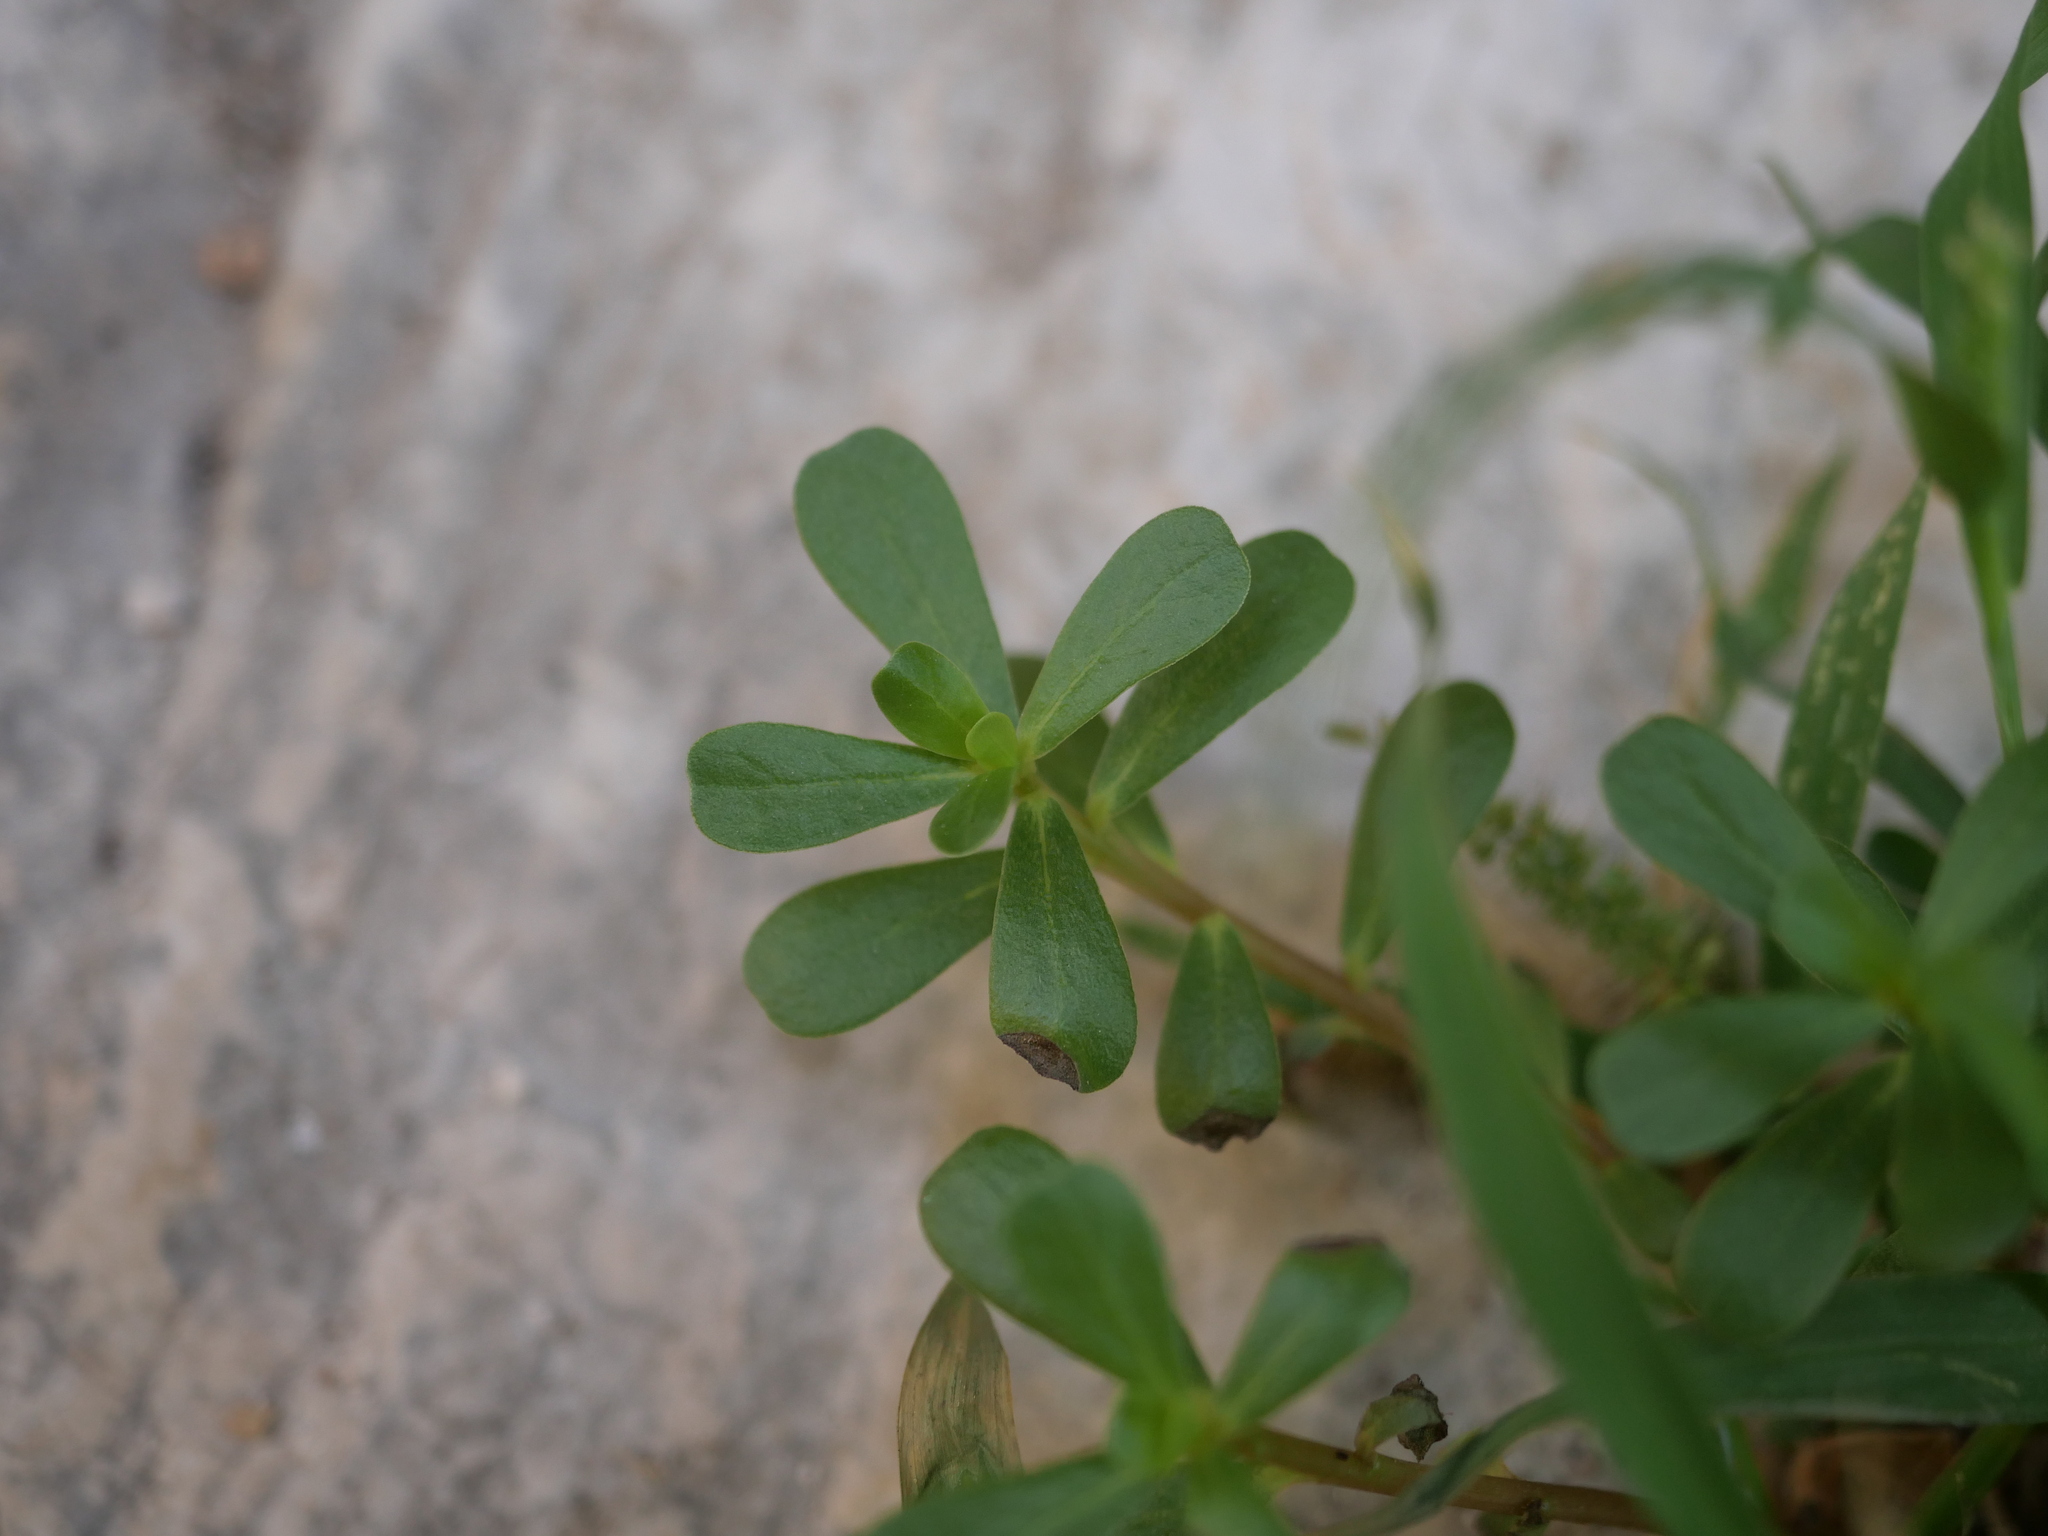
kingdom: Plantae
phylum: Tracheophyta
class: Magnoliopsida
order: Caryophyllales
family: Portulacaceae
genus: Portulaca
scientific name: Portulaca oleracea
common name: Common purslane
